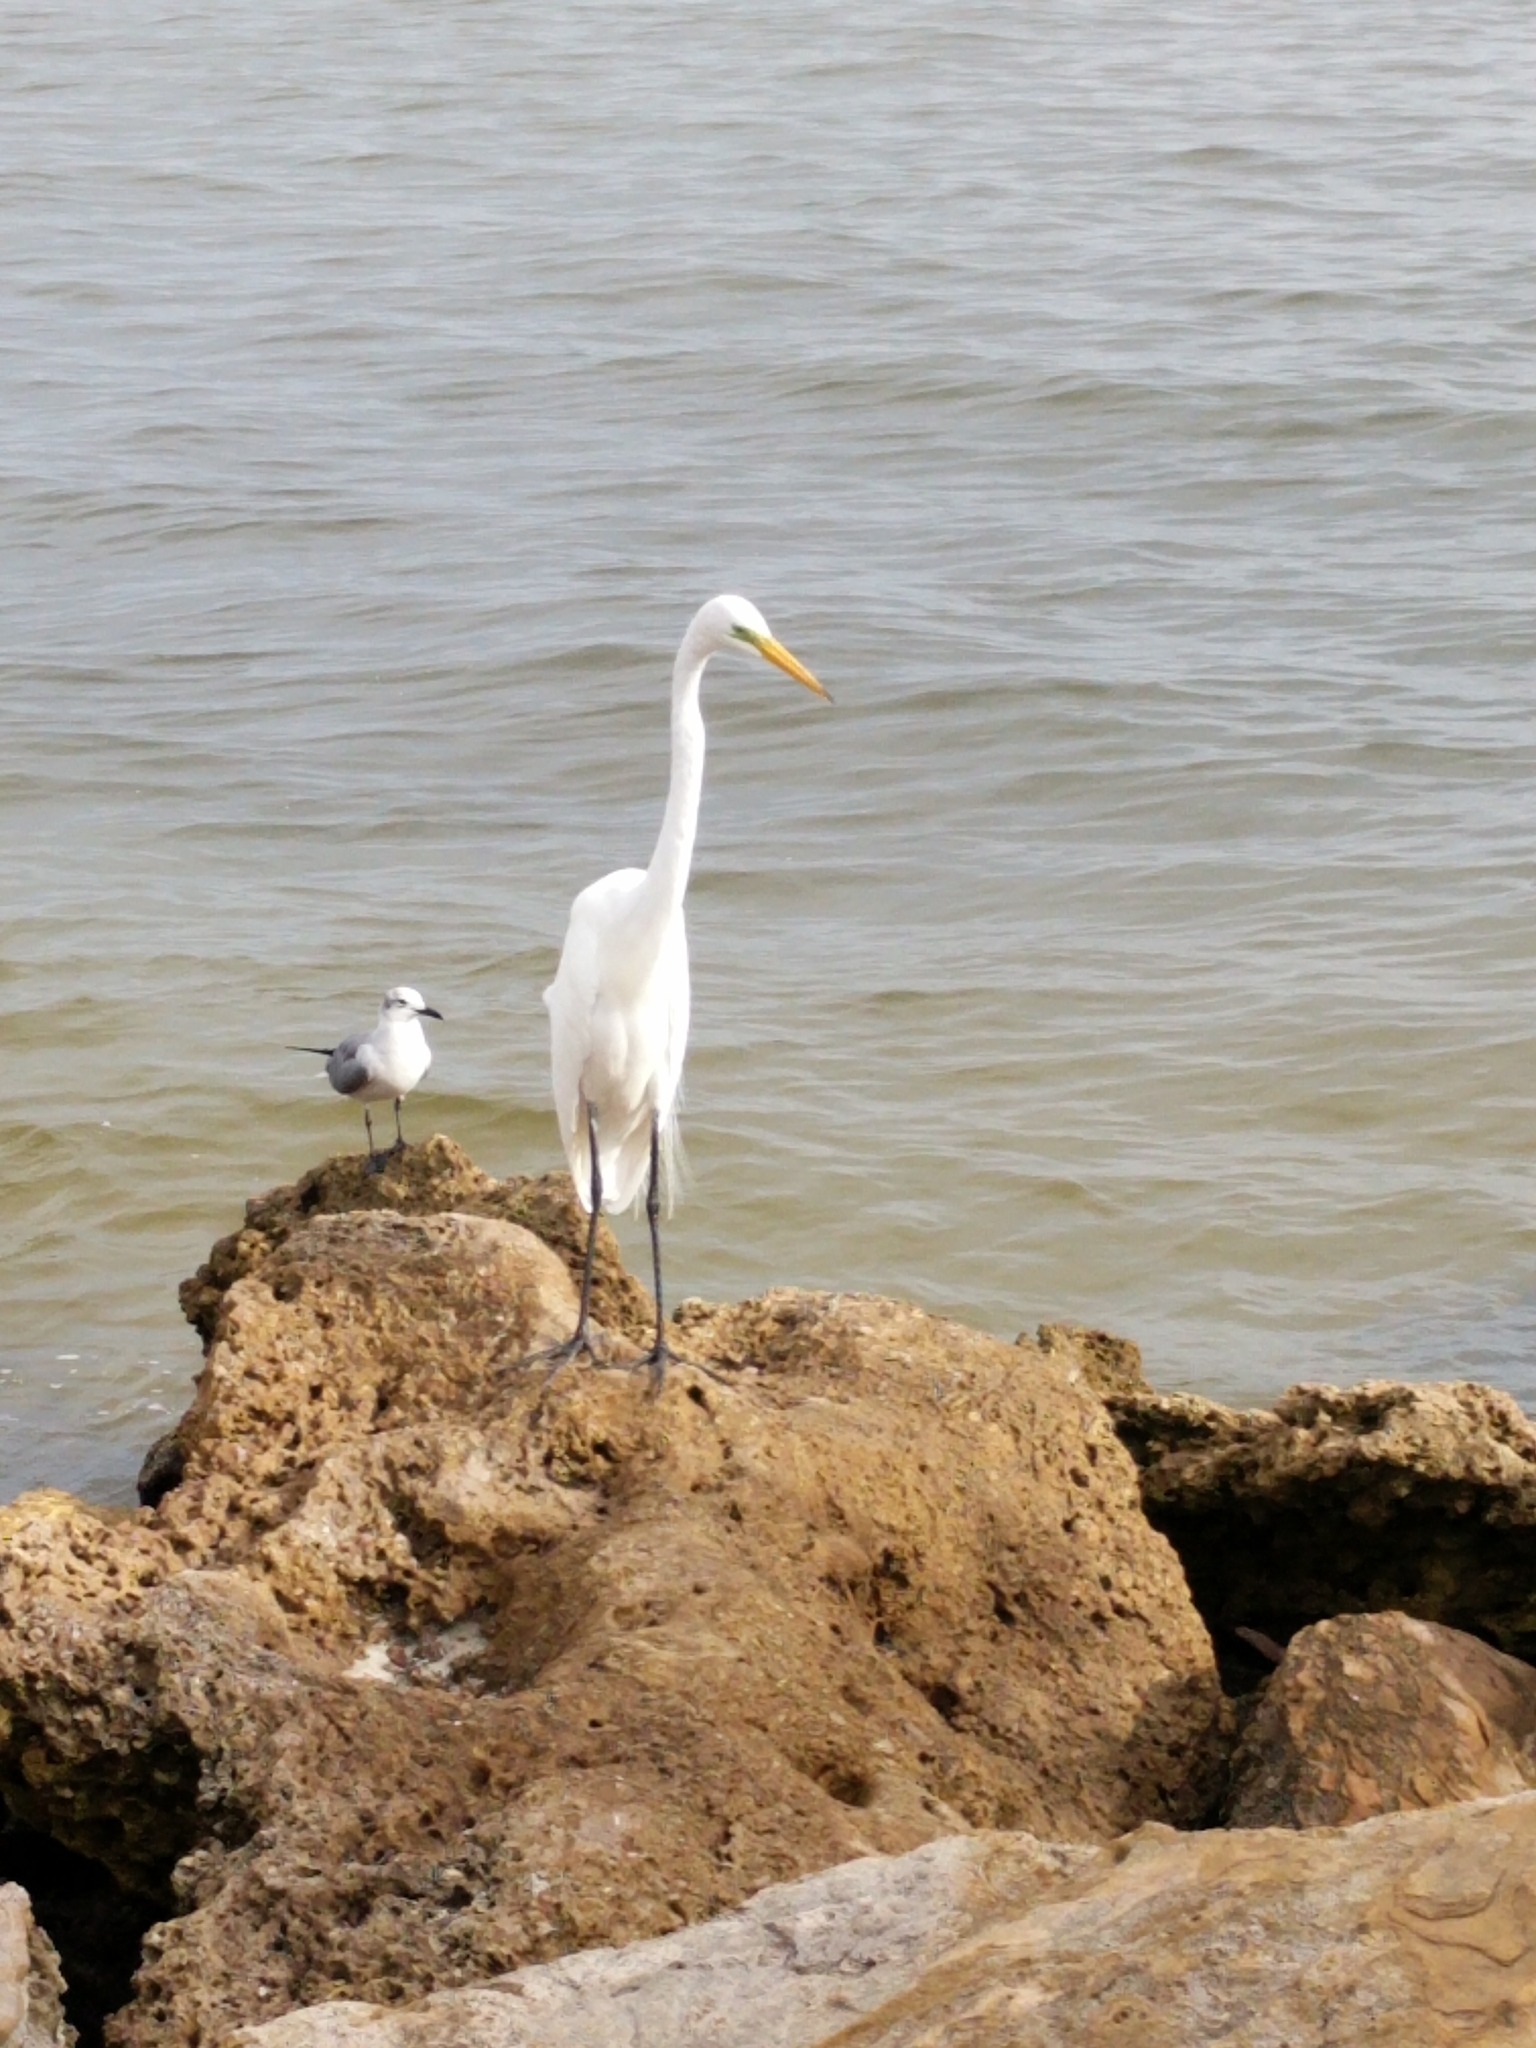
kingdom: Animalia
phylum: Chordata
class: Aves
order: Pelecaniformes
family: Ardeidae
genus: Ardea
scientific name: Ardea alba
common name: Great egret
